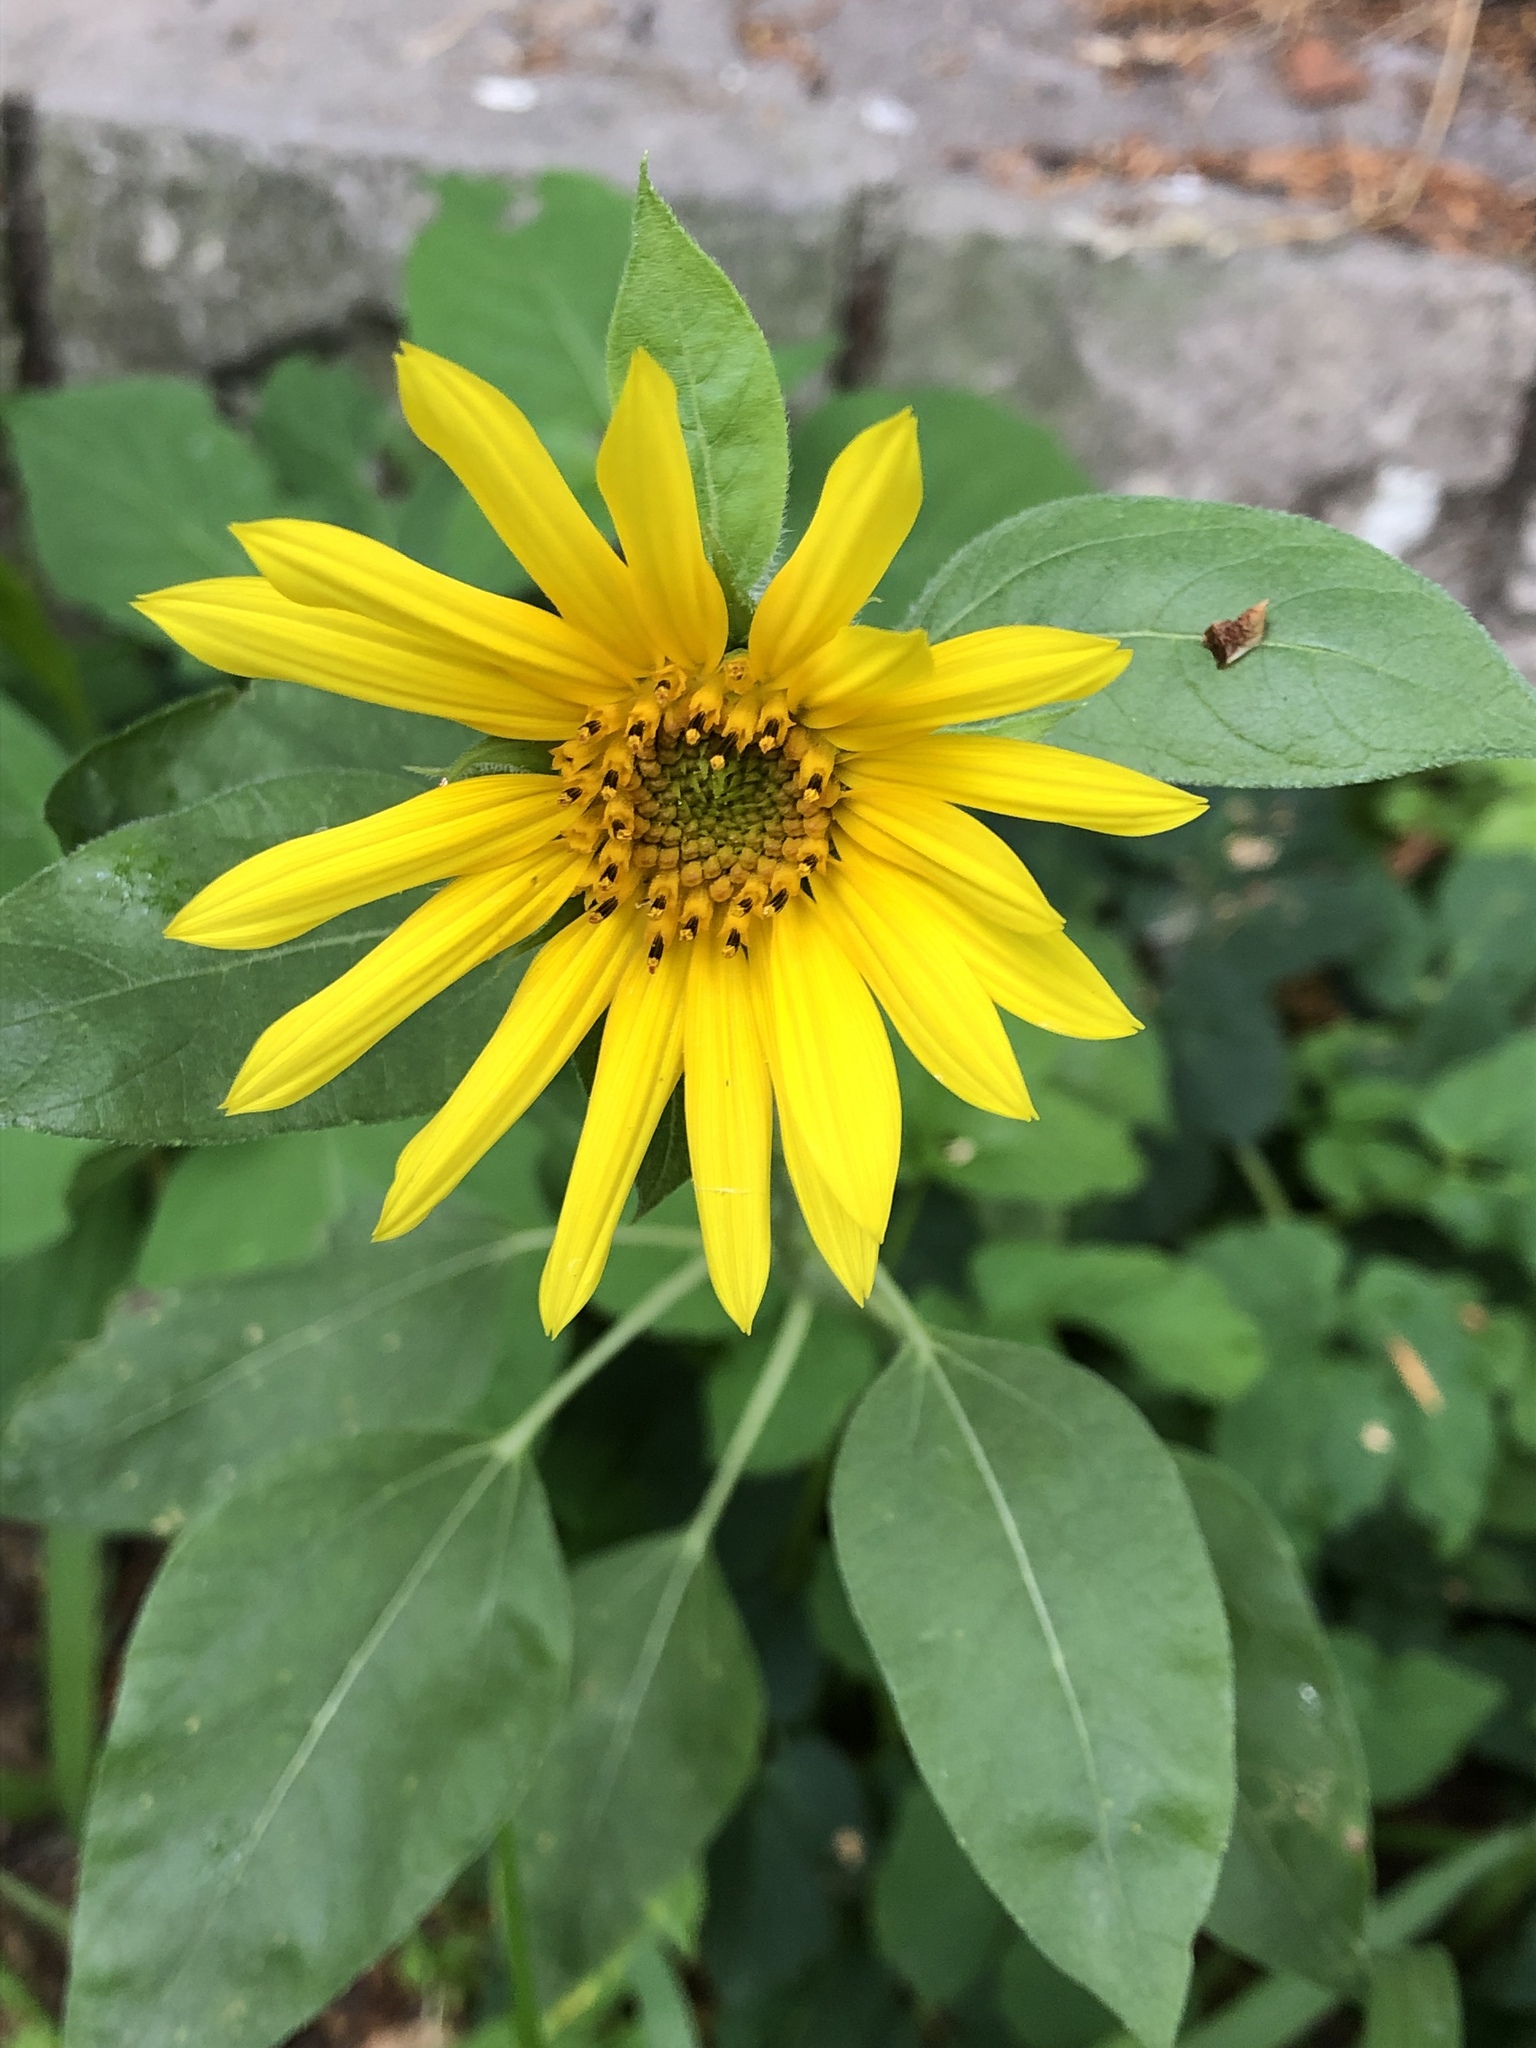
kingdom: Plantae
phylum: Tracheophyta
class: Magnoliopsida
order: Asterales
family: Asteraceae
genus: Helianthus
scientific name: Helianthus tuberosus
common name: Jerusalem artichoke
